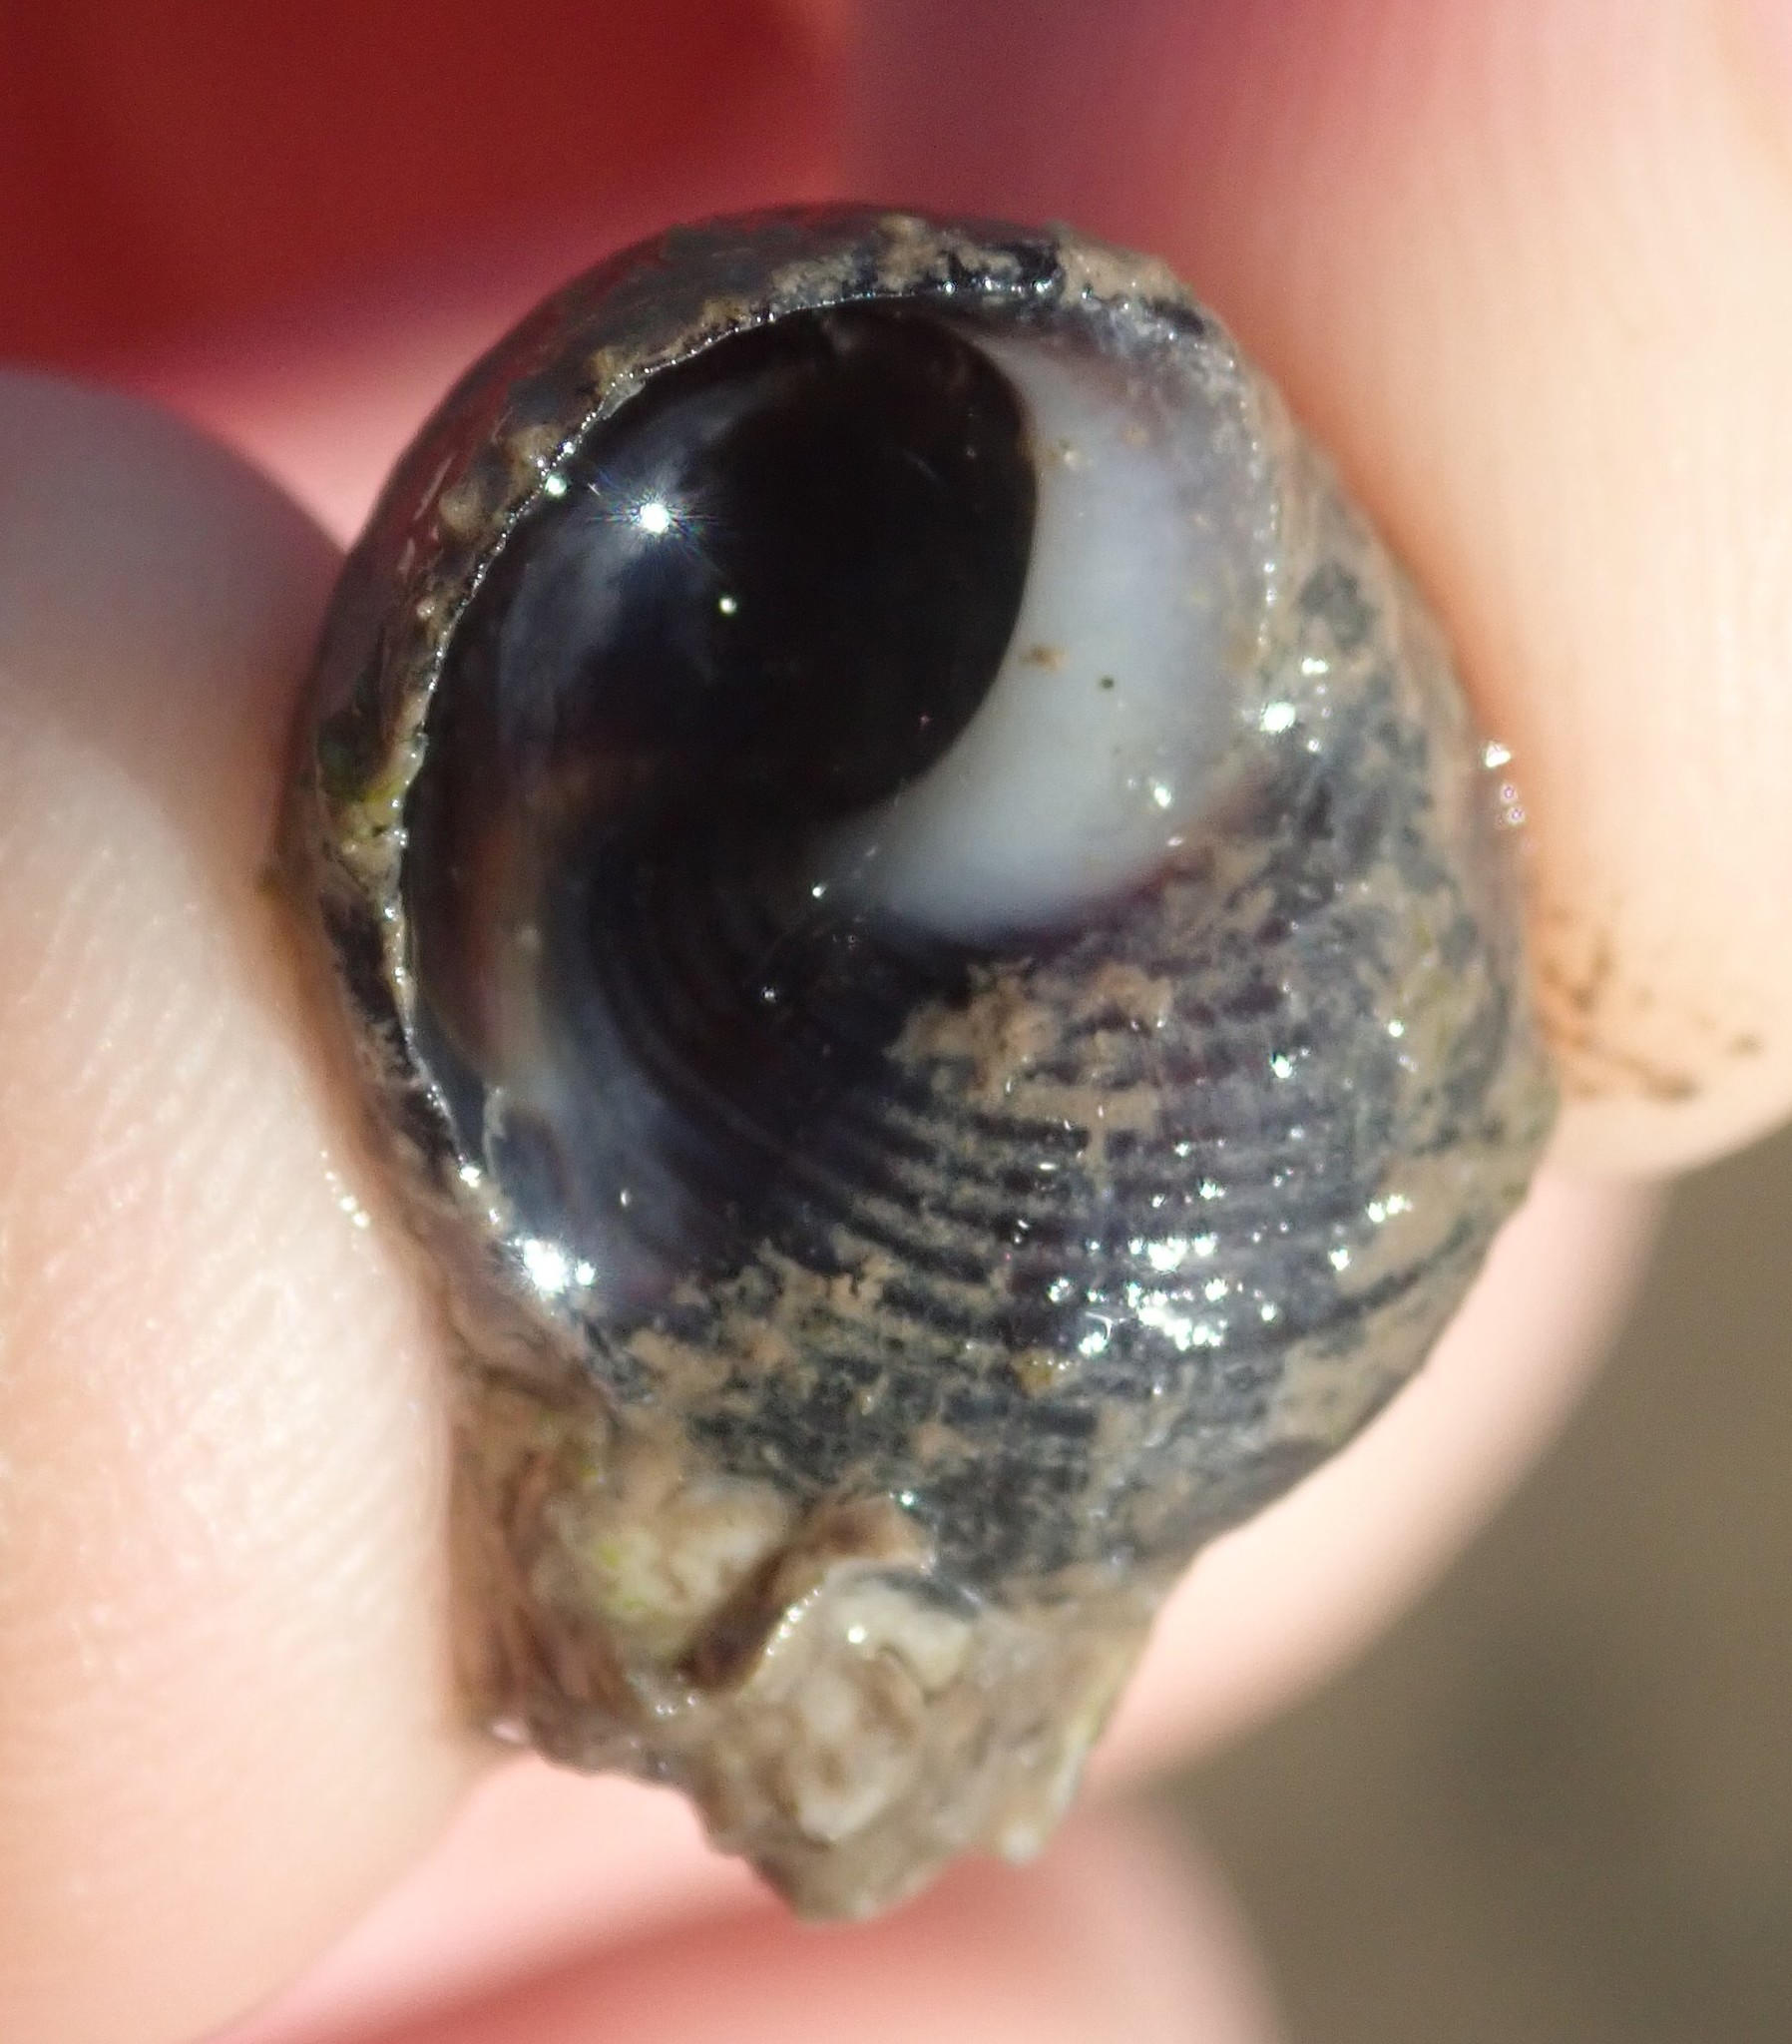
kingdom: Animalia
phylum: Mollusca
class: Gastropoda
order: Littorinimorpha
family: Littorinidae
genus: Littorina
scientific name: Littorina littorea
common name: Common periwinkle
